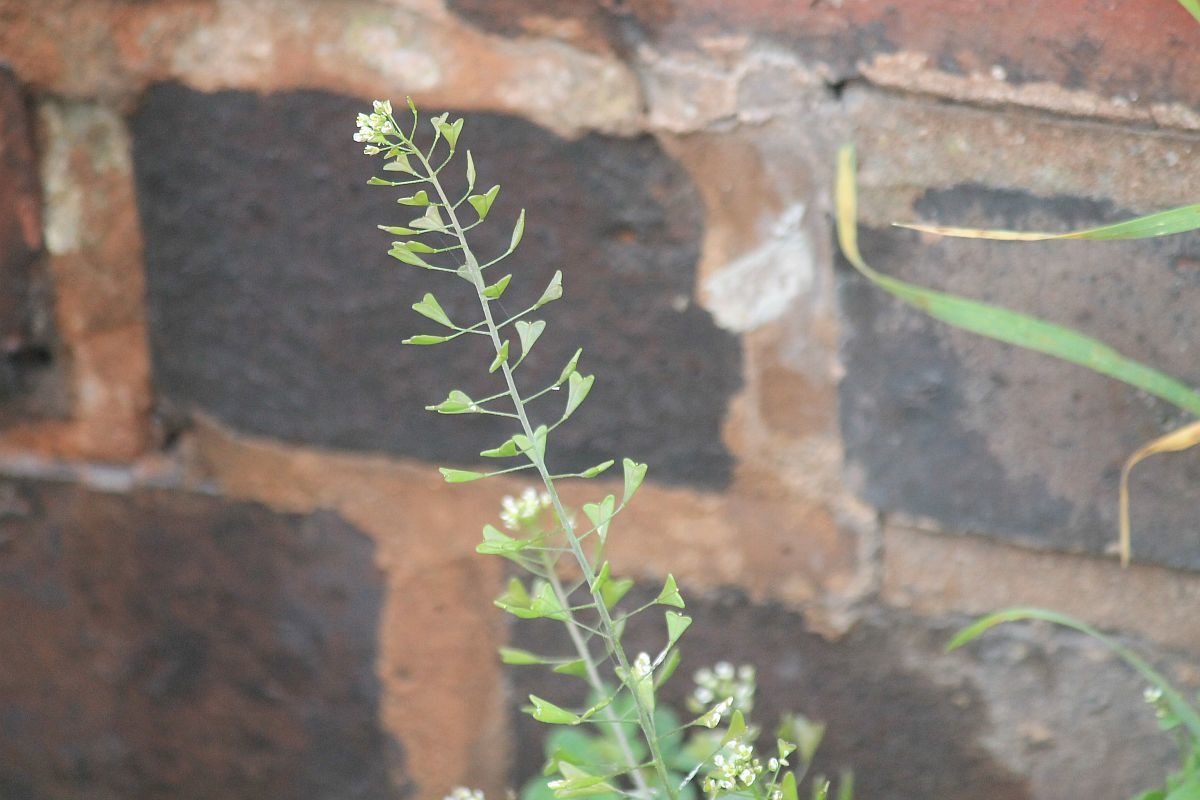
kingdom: Plantae
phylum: Tracheophyta
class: Magnoliopsida
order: Brassicales
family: Brassicaceae
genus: Capsella
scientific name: Capsella bursa-pastoris
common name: Shepherd's purse
